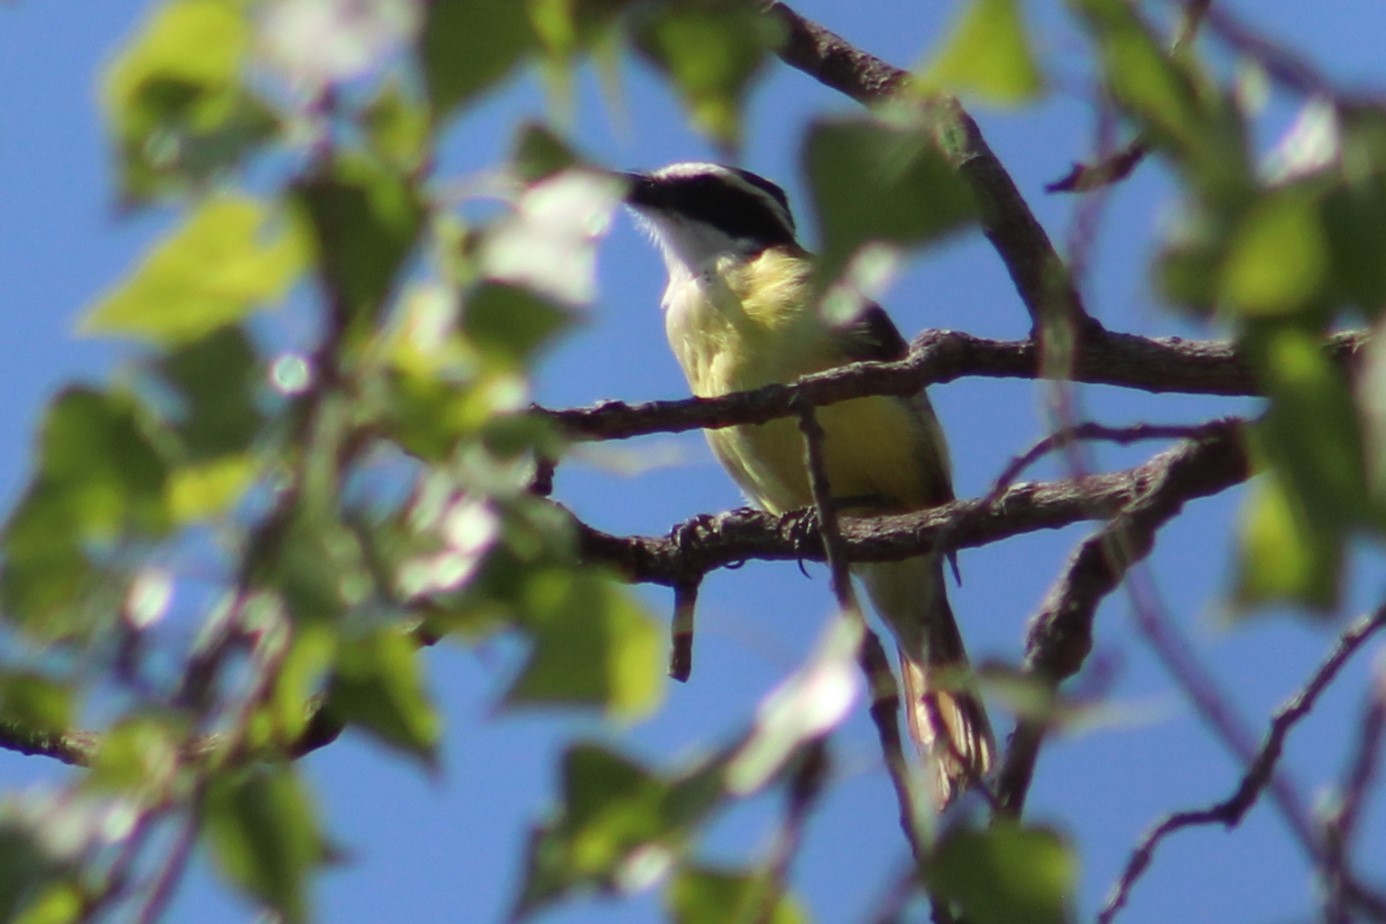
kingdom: Animalia
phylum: Chordata
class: Aves
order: Passeriformes
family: Tyrannidae
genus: Pitangus
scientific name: Pitangus sulphuratus
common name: Great kiskadee
